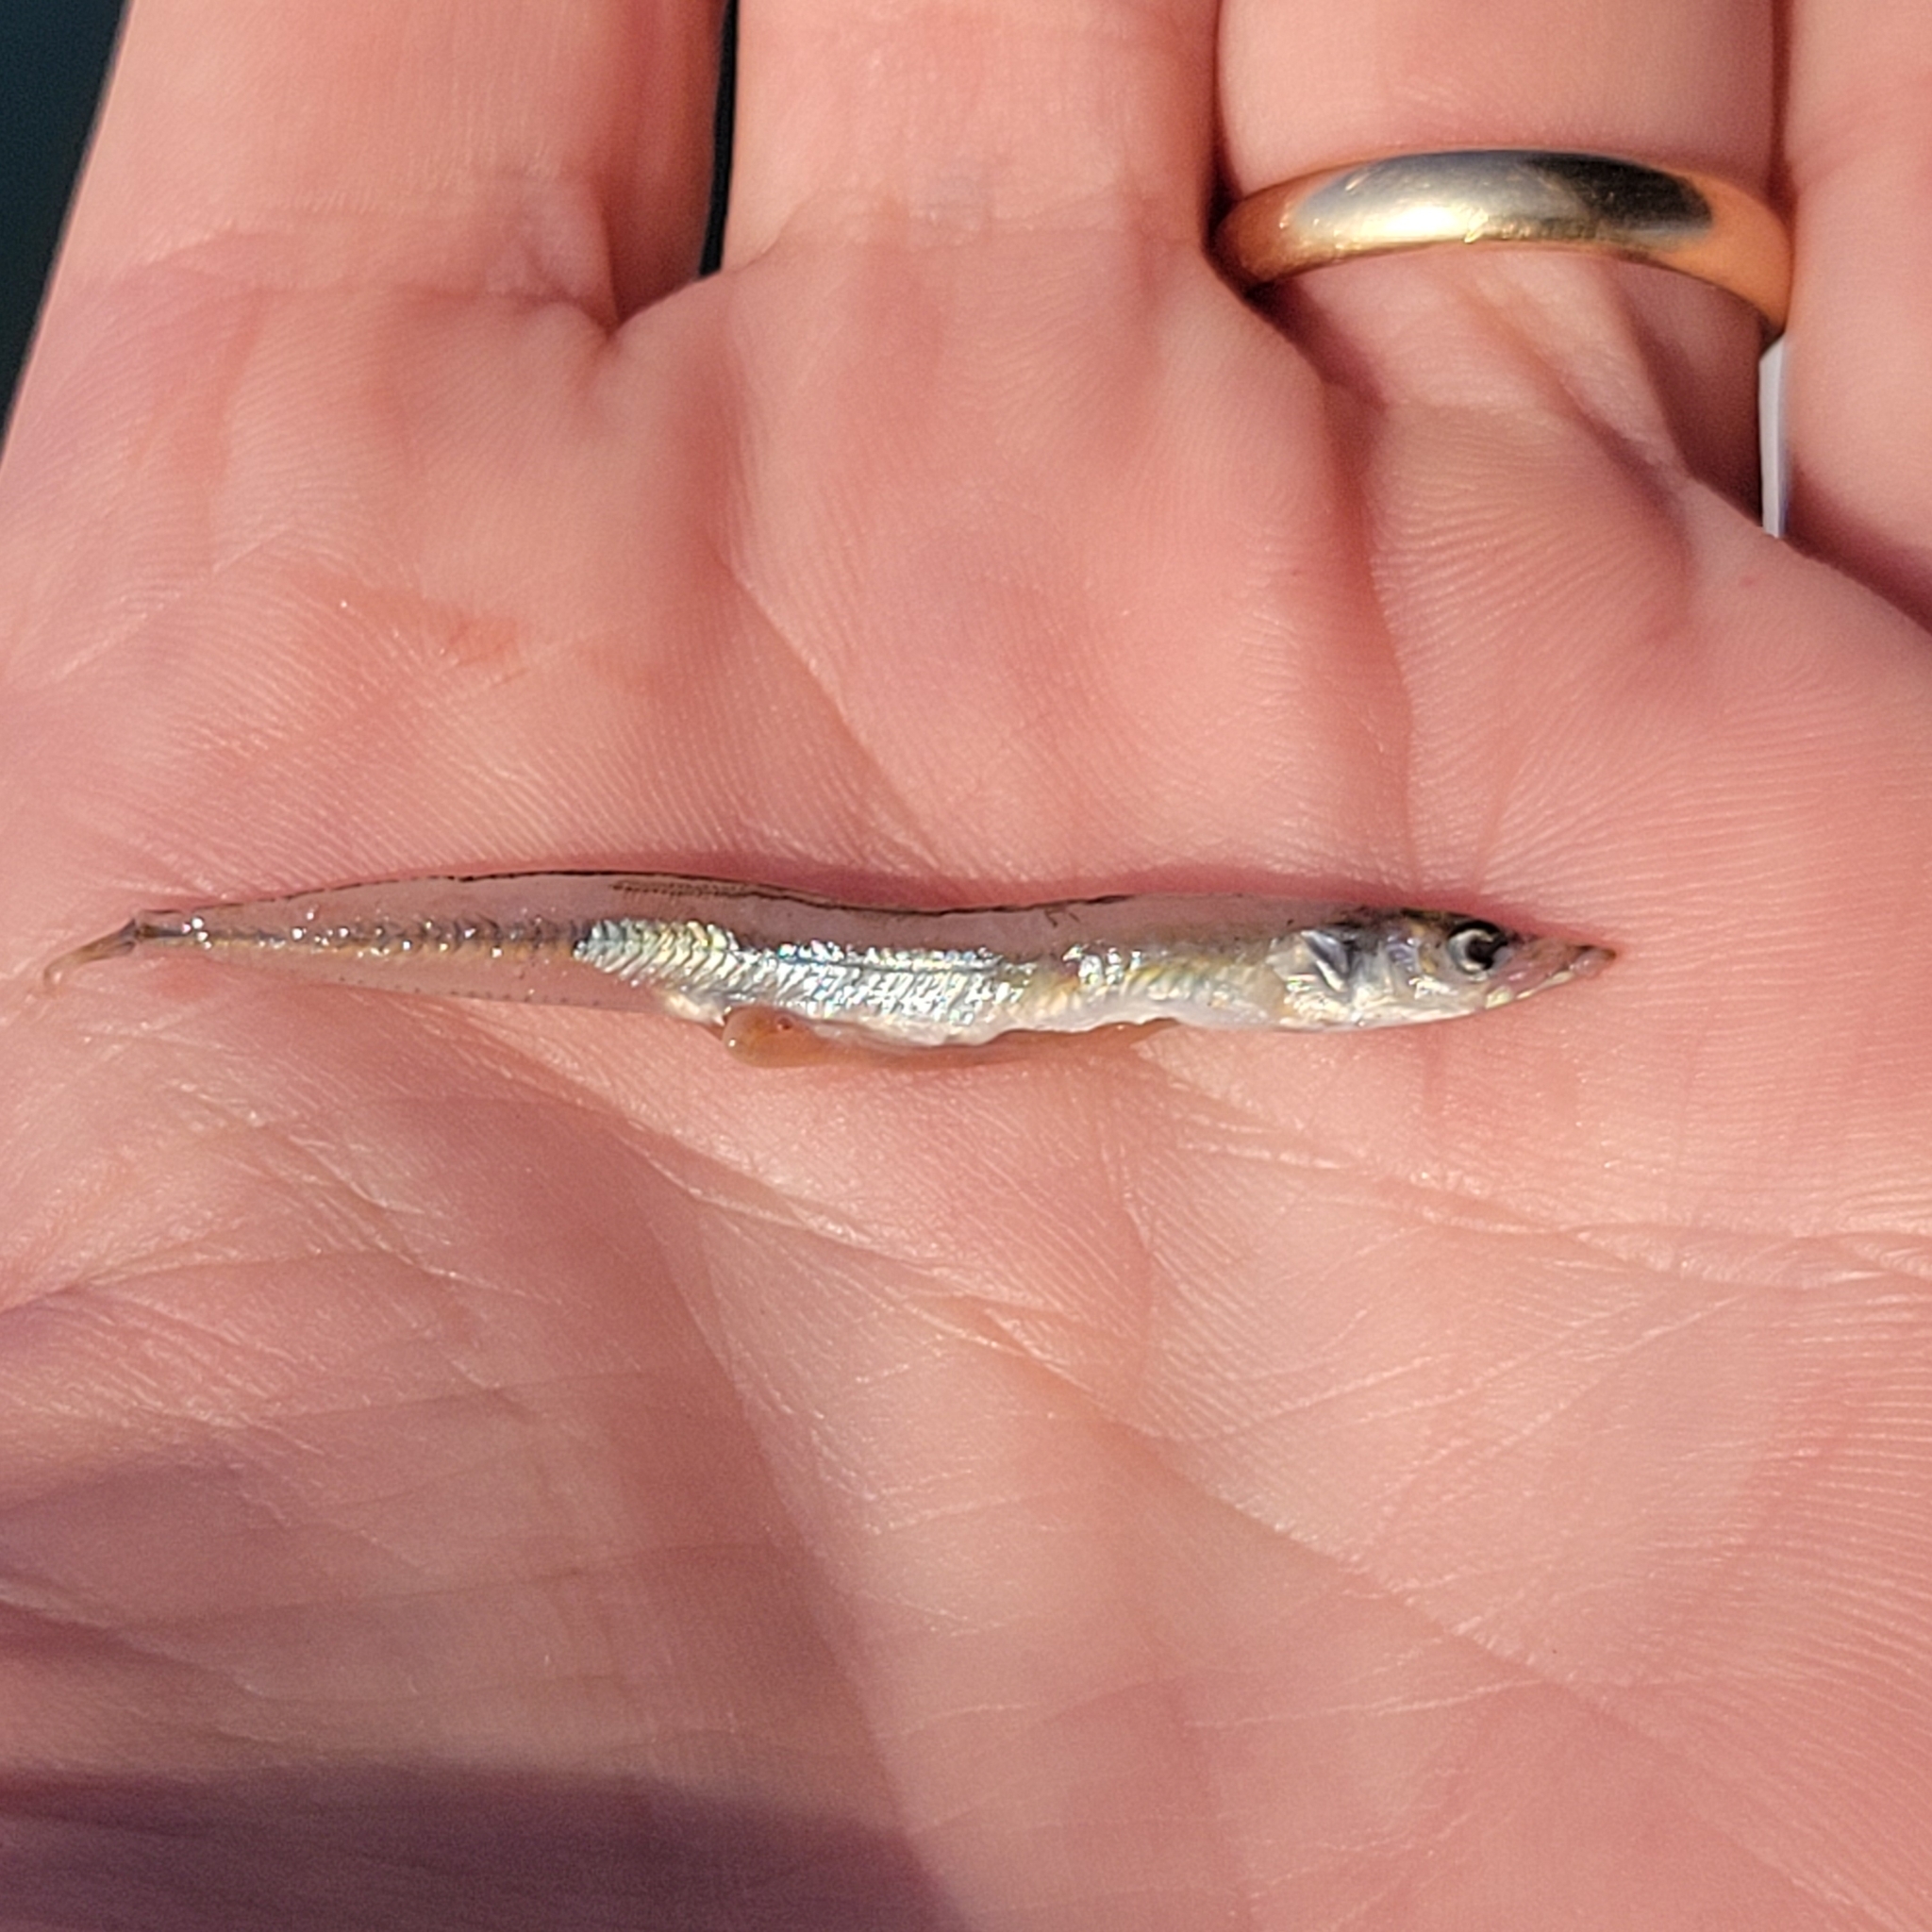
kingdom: Animalia
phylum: Chordata
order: Perciformes
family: Ammodytidae
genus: Ammodytes
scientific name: Ammodytes
